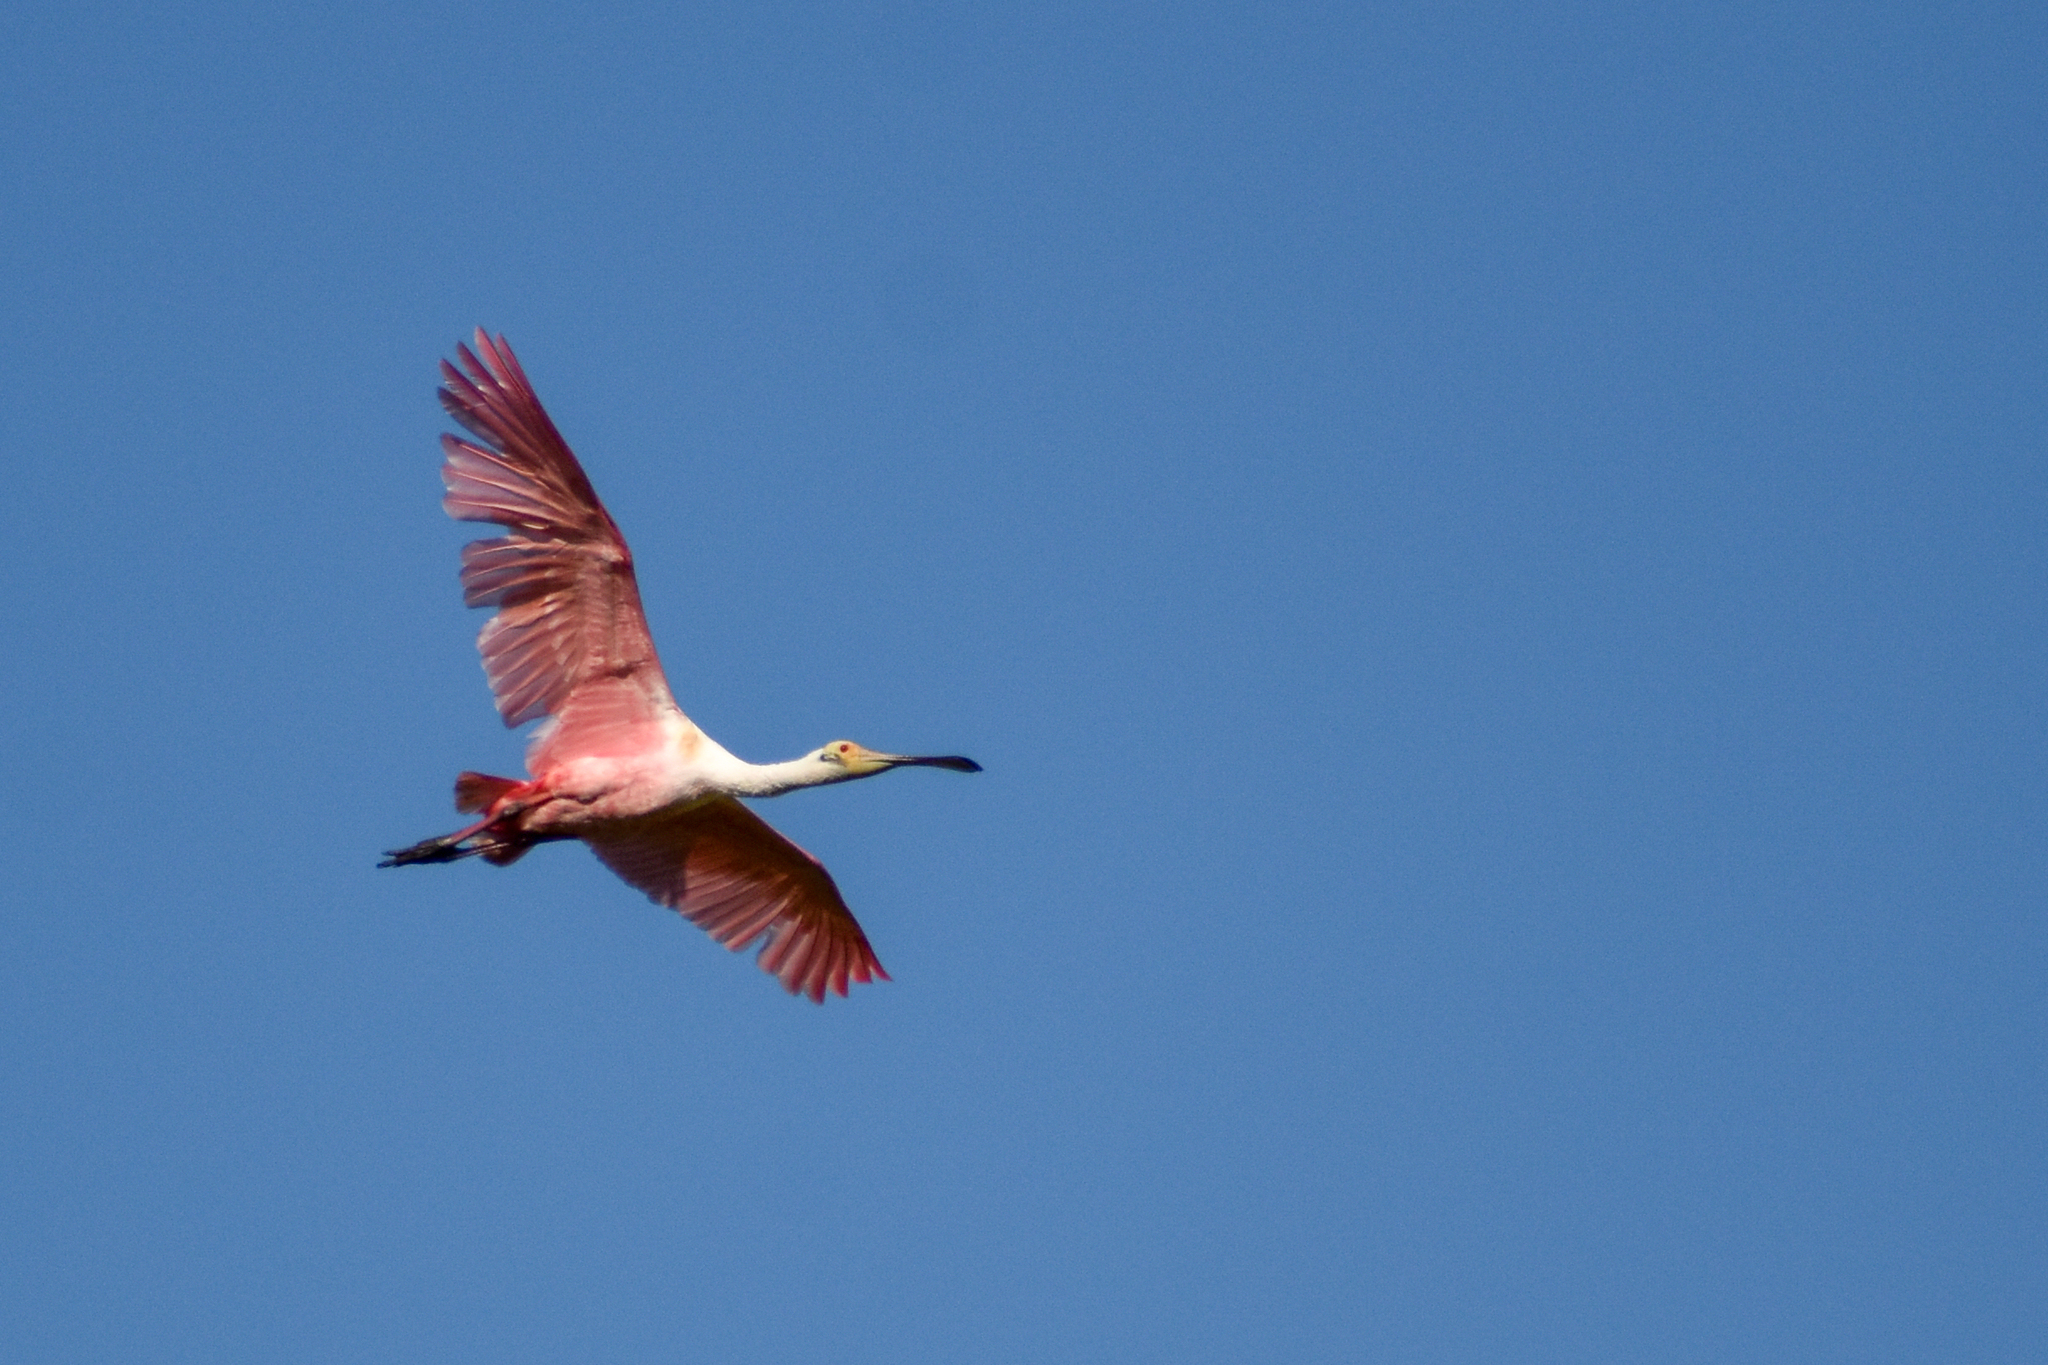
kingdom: Animalia
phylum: Chordata
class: Aves
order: Pelecaniformes
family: Threskiornithidae
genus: Platalea
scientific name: Platalea ajaja
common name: Roseate spoonbill
